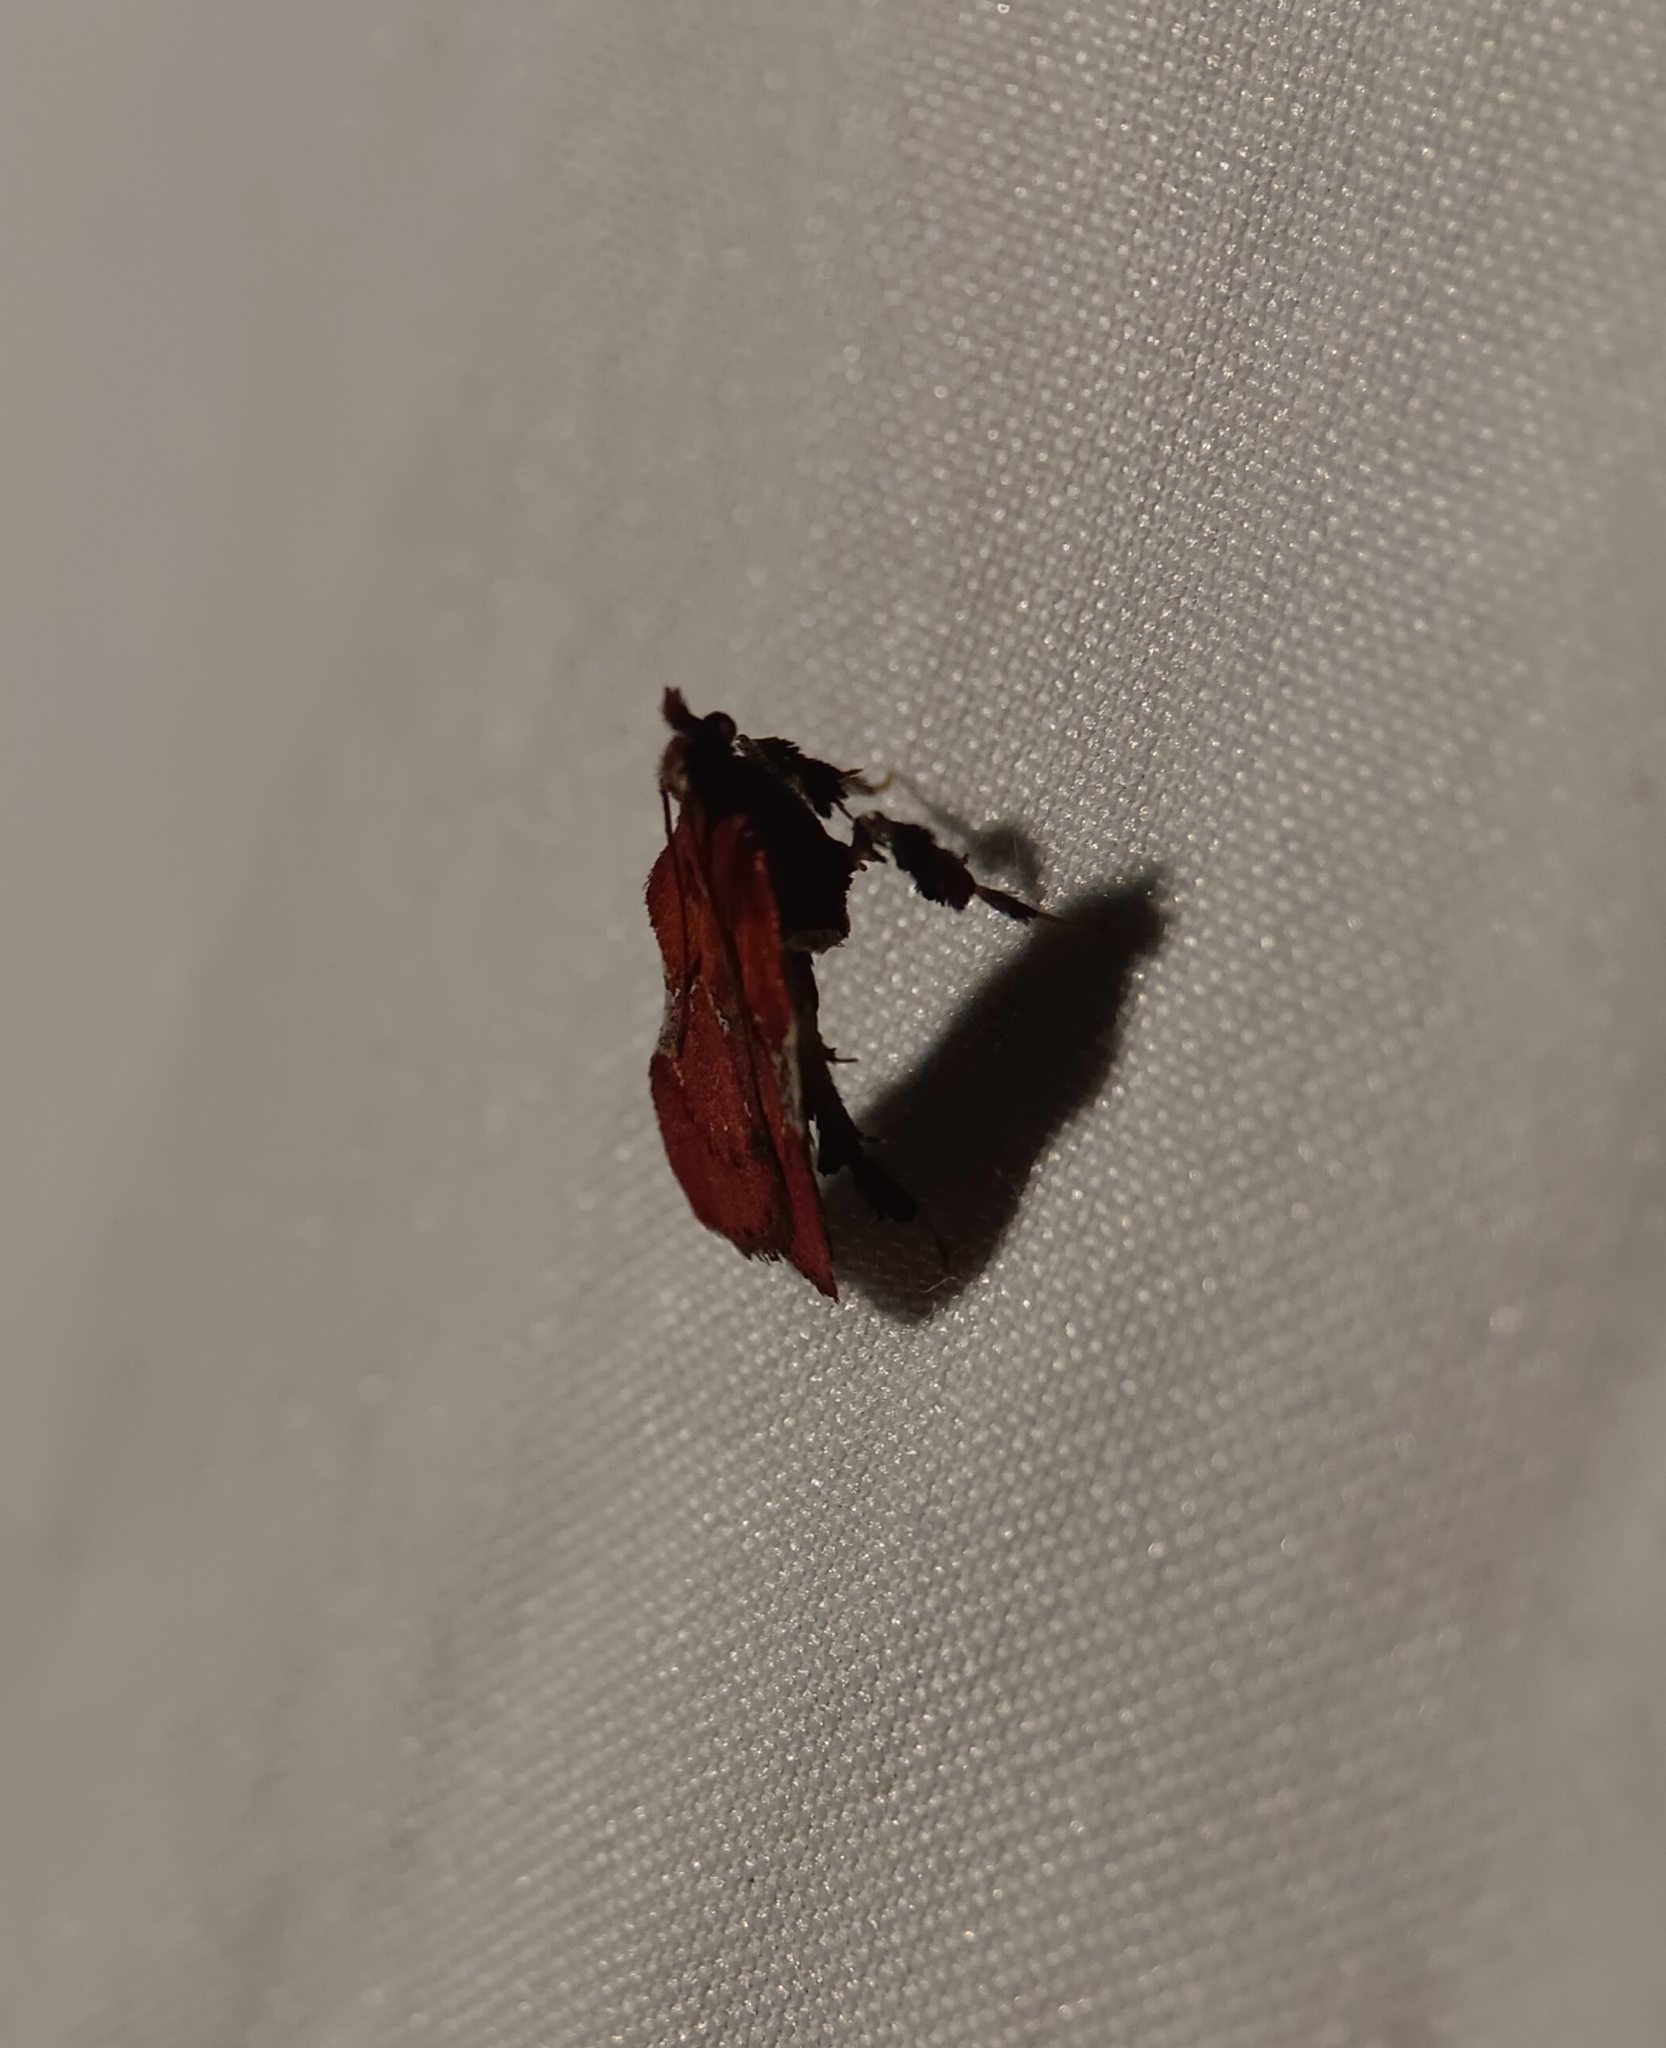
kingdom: Animalia
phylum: Arthropoda
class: Insecta
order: Lepidoptera
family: Pyralidae
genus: Galasa
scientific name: Galasa nigrinodis
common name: Boxwood leaftier moth
